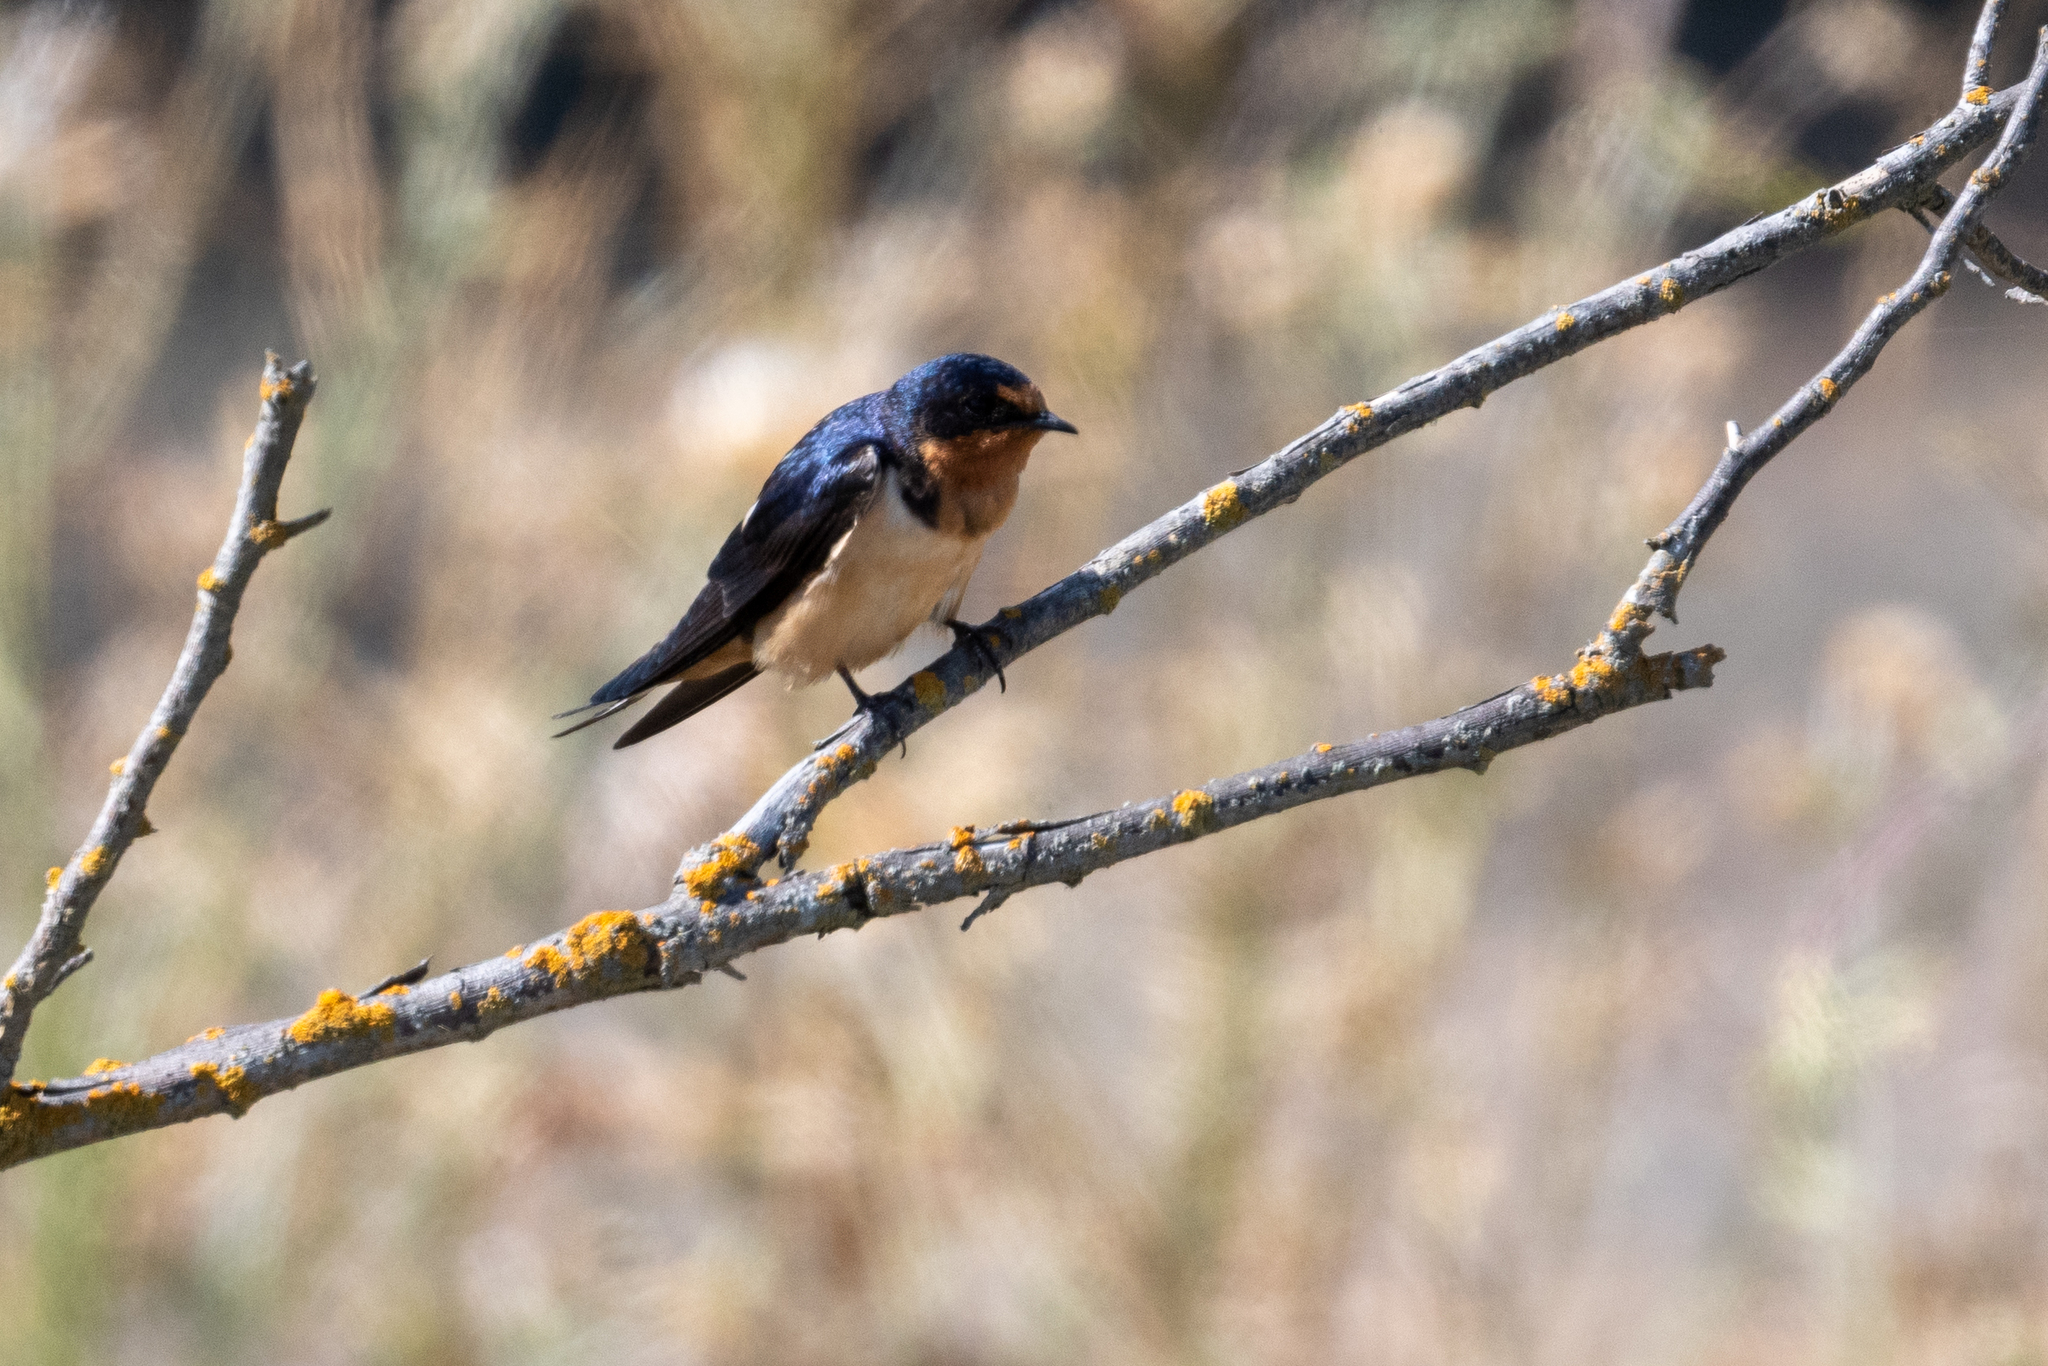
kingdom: Animalia
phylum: Chordata
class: Aves
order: Passeriformes
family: Hirundinidae
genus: Hirundo
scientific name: Hirundo rustica
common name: Barn swallow
